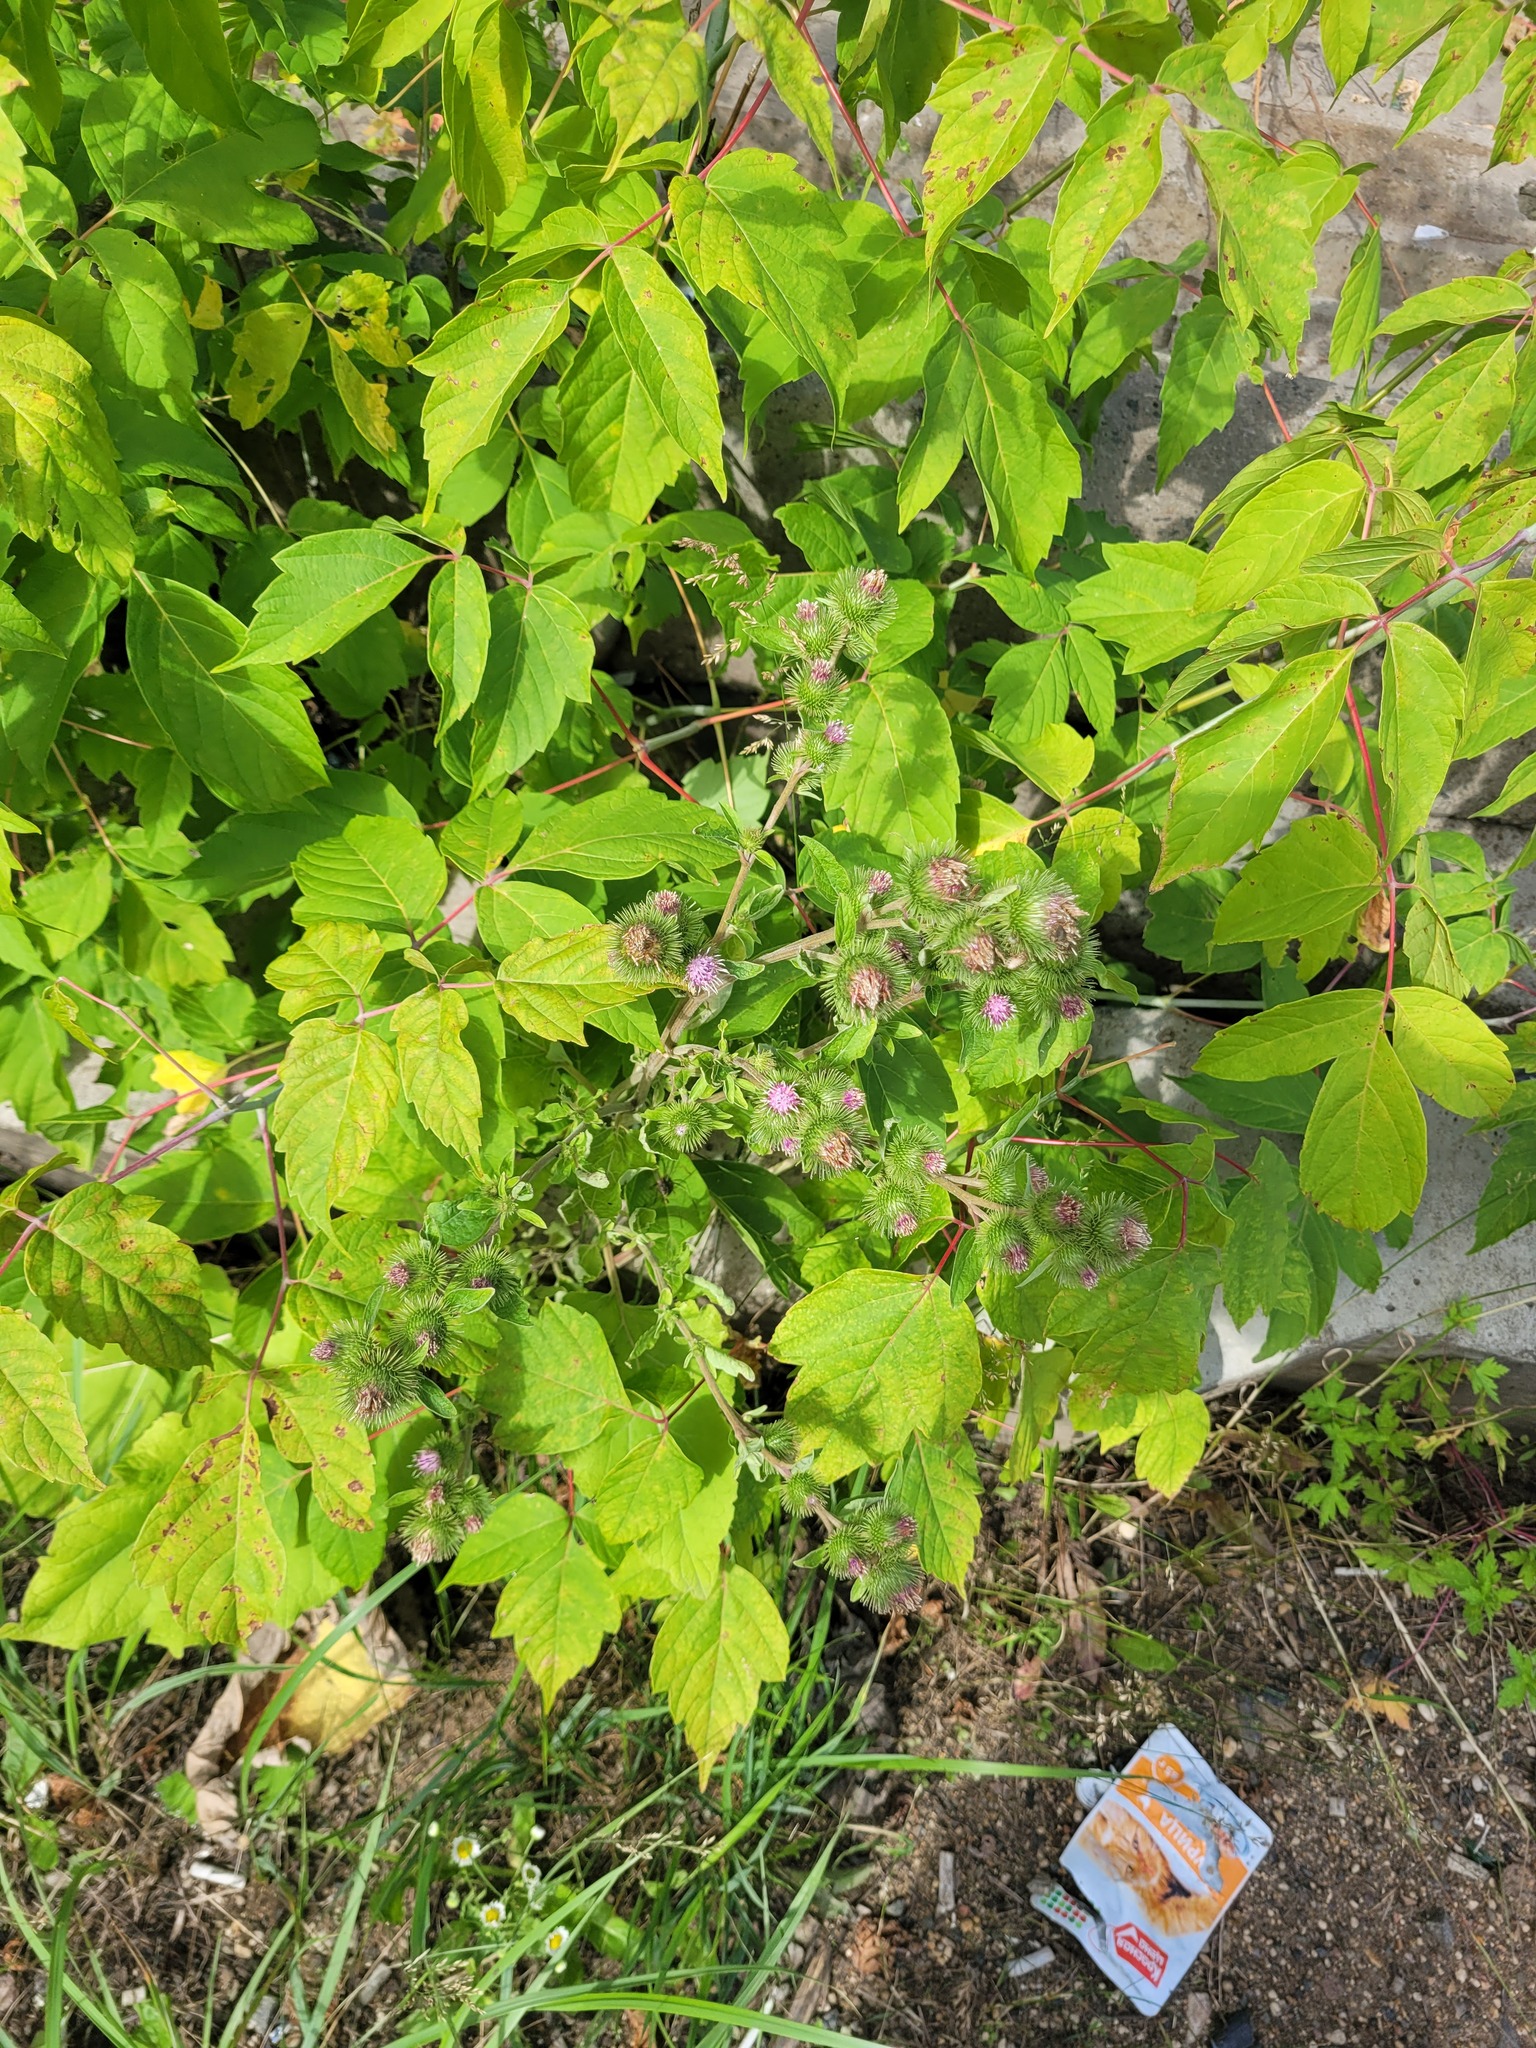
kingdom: Plantae
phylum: Tracheophyta
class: Magnoliopsida
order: Asterales
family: Asteraceae
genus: Arctium
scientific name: Arctium minus
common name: Lesser burdock
